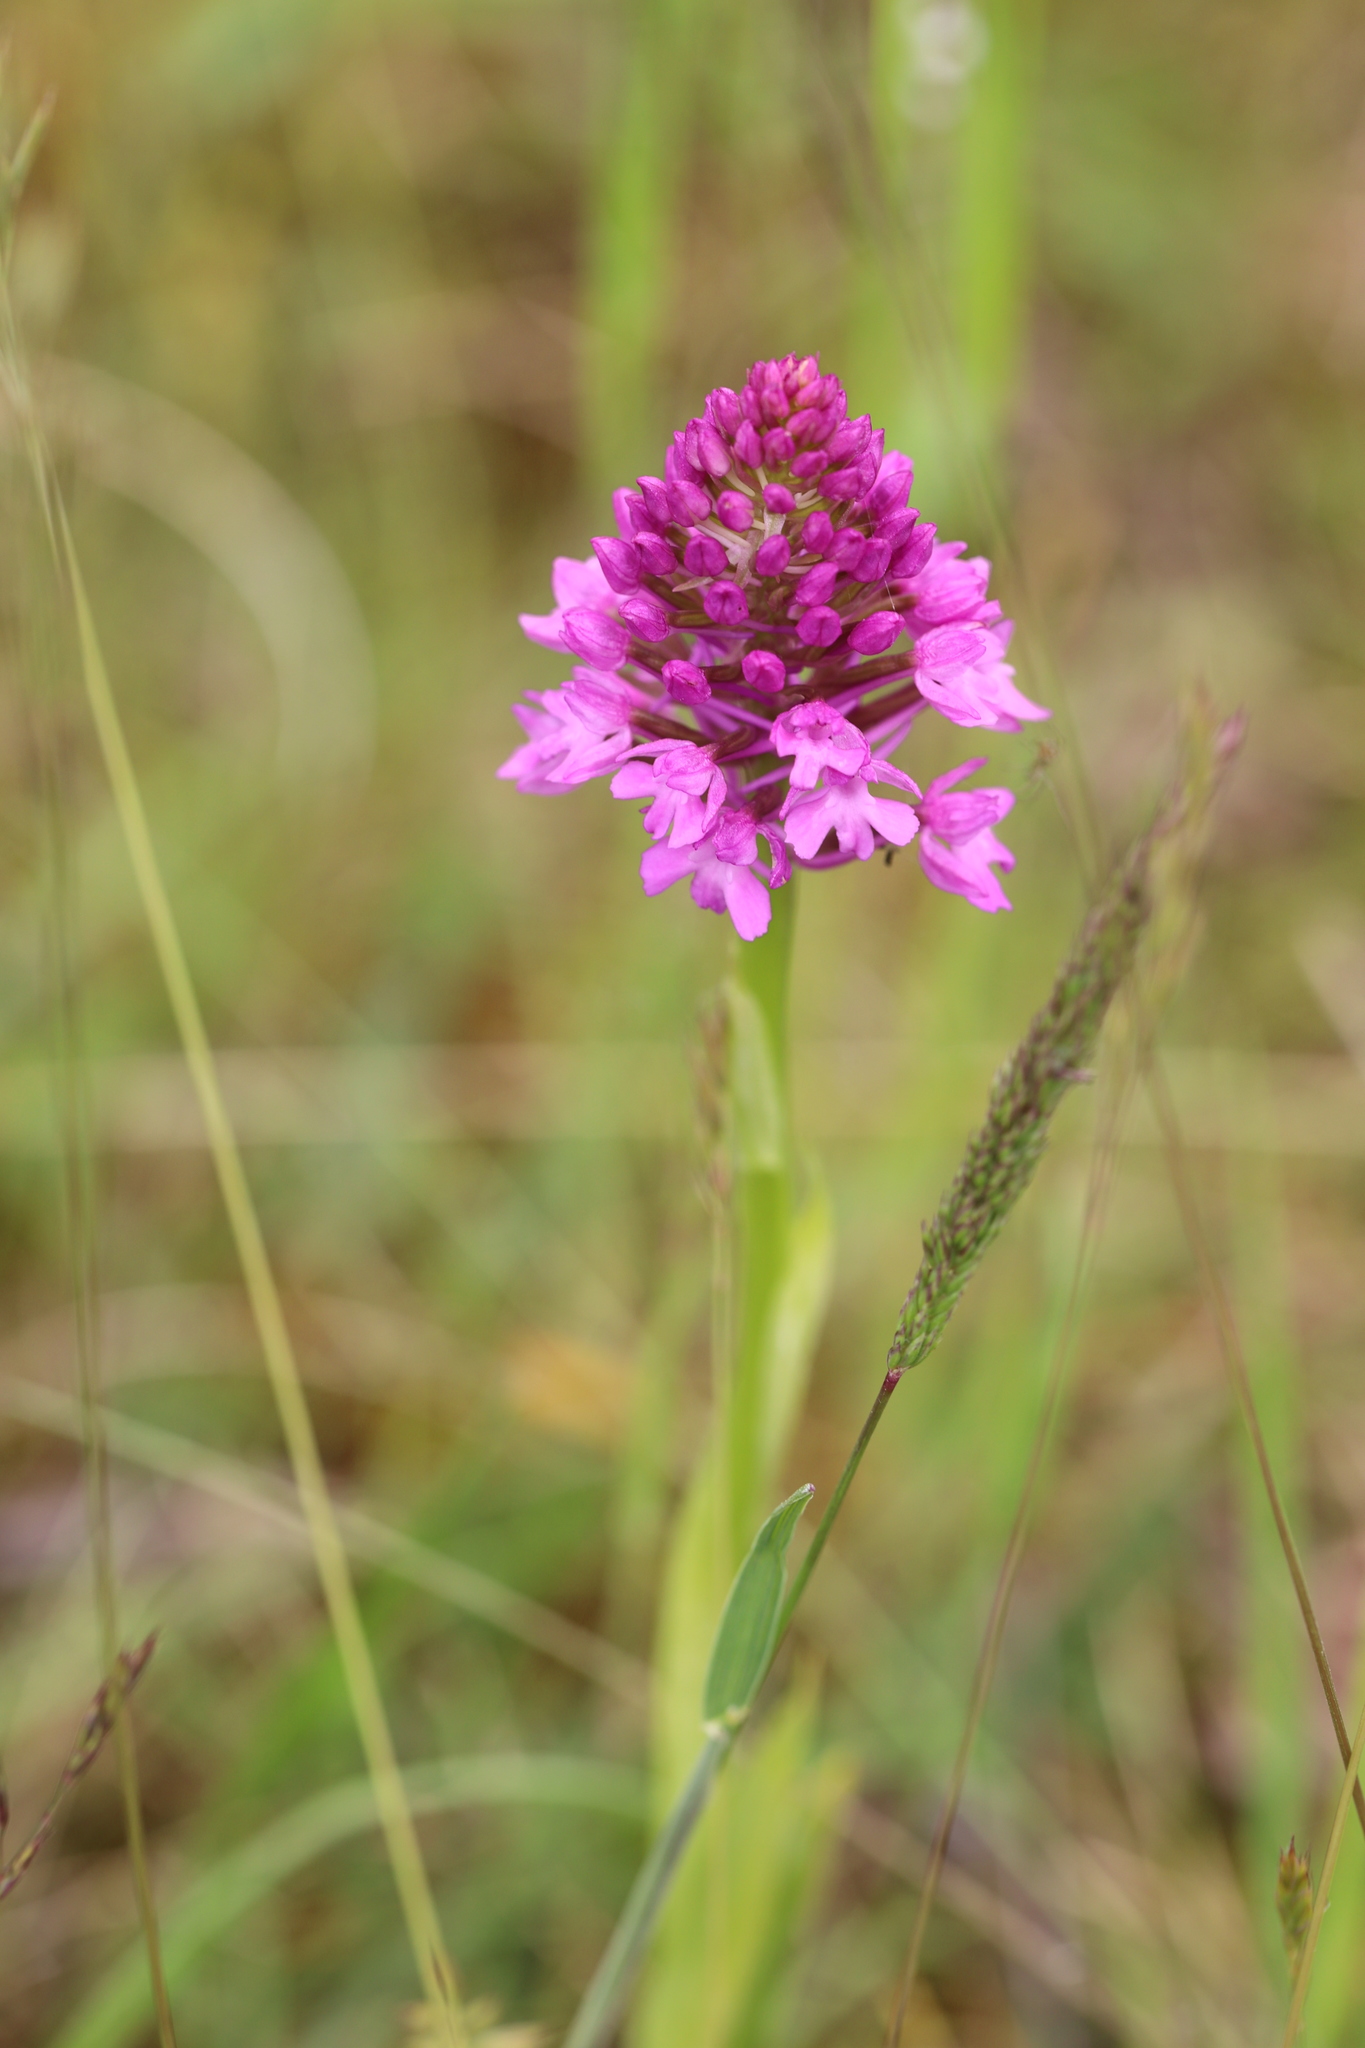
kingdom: Plantae
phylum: Tracheophyta
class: Liliopsida
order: Asparagales
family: Orchidaceae
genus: Anacamptis
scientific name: Anacamptis pyramidalis
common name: Pyramidal orchid
